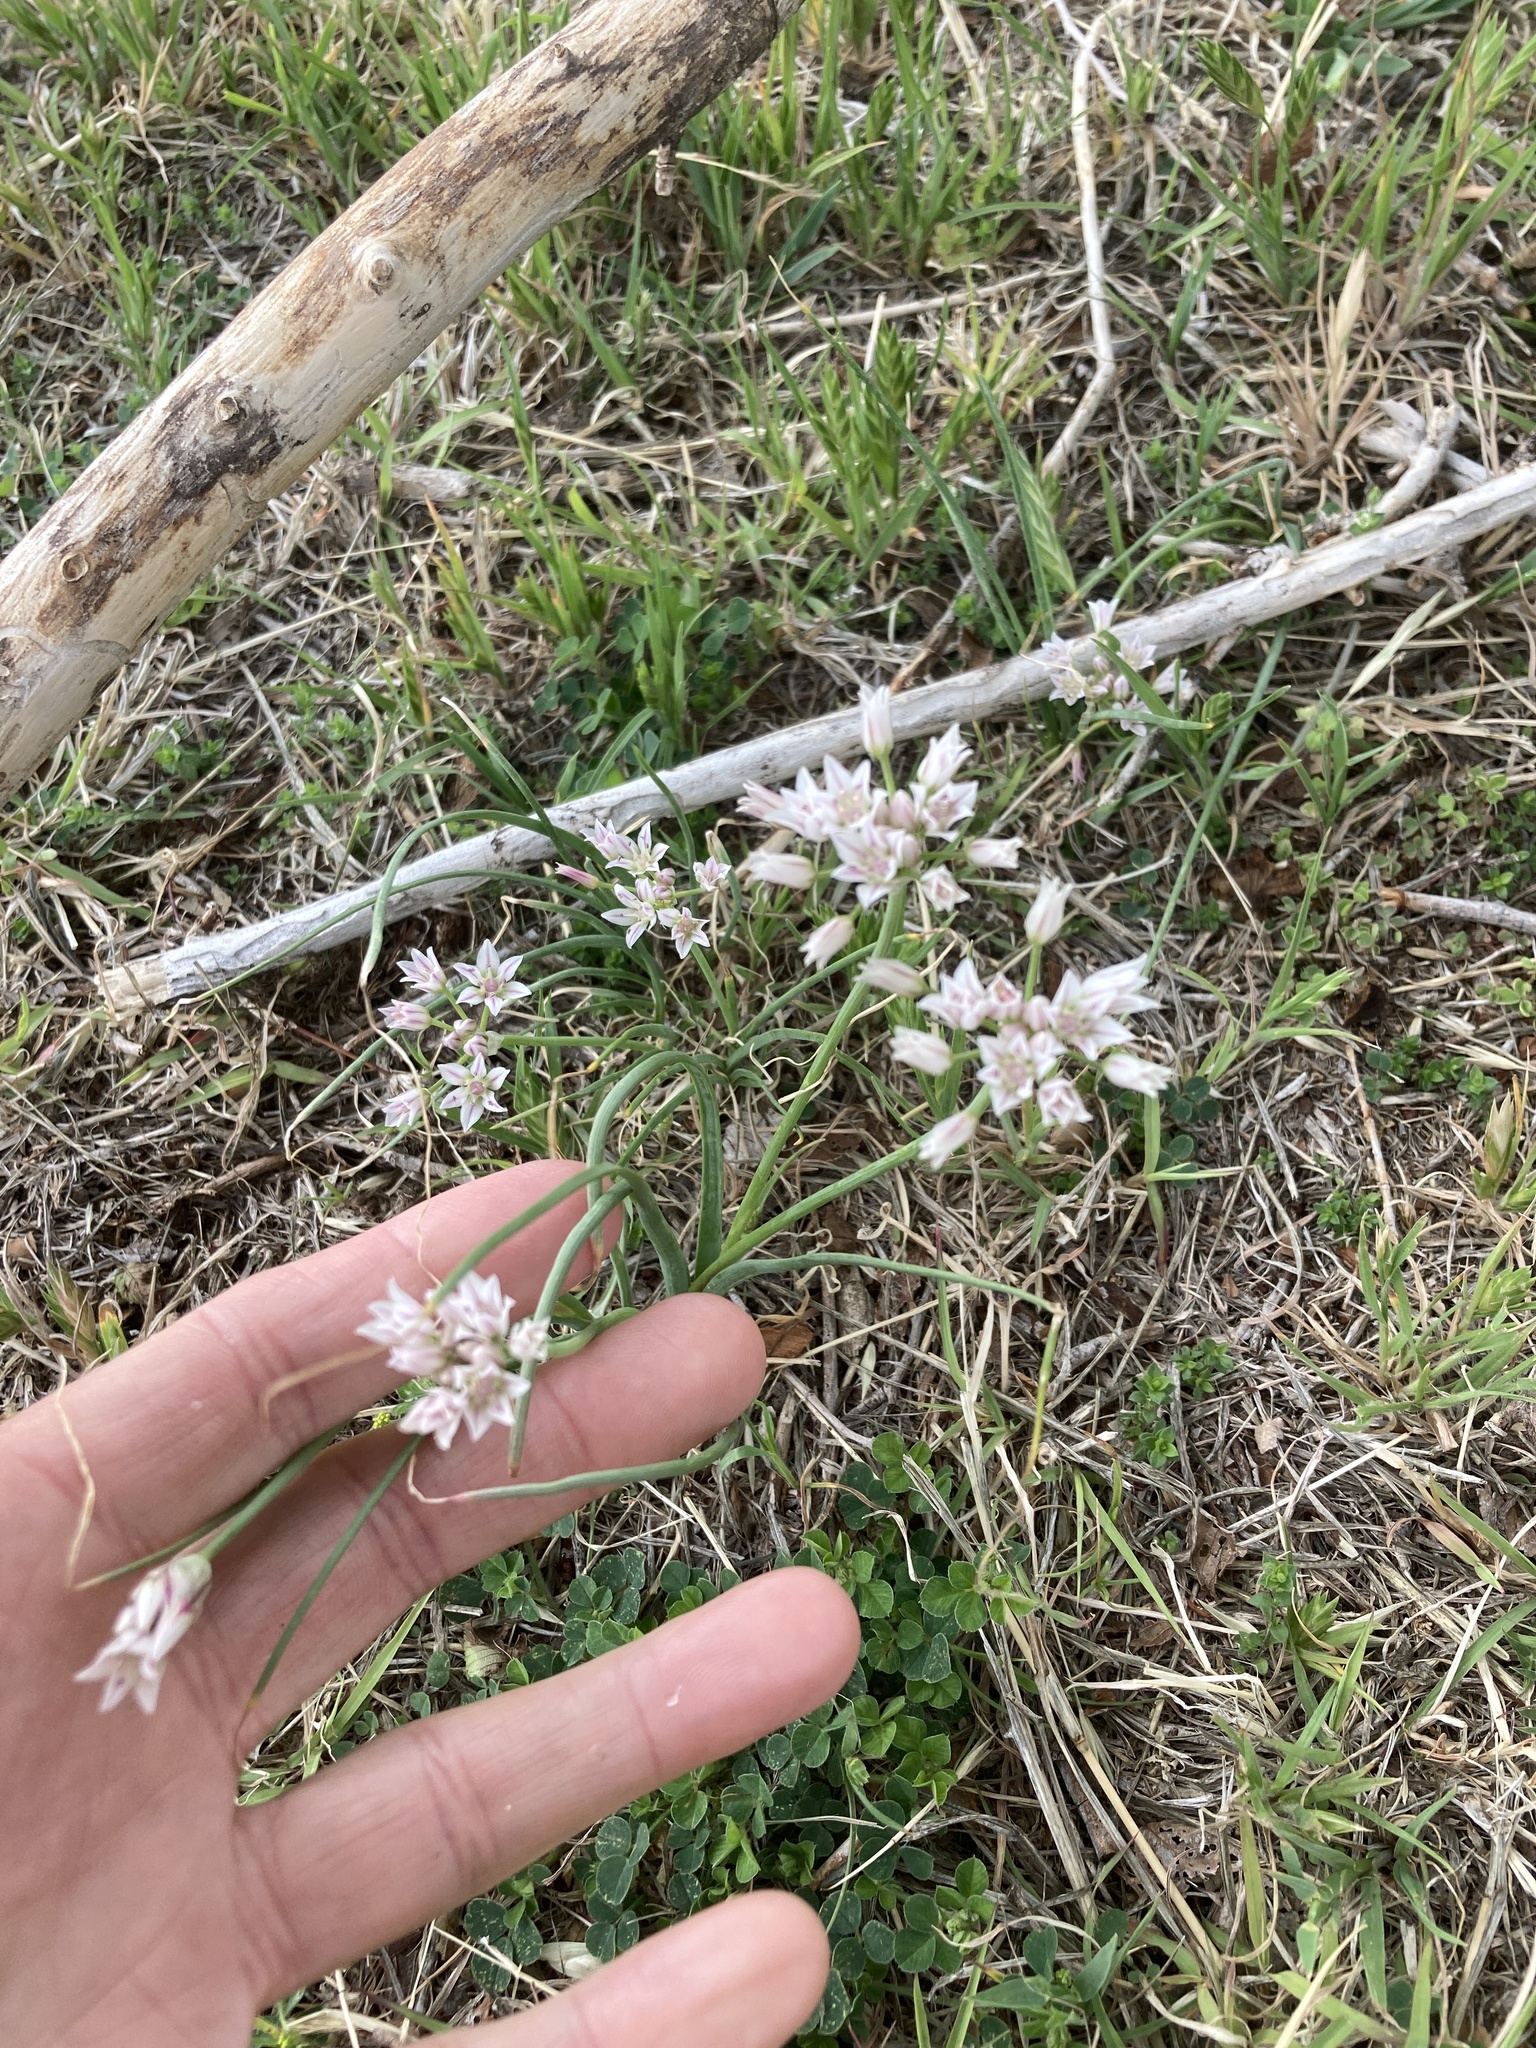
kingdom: Plantae
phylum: Tracheophyta
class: Liliopsida
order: Asparagales
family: Amaryllidaceae
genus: Allium
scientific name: Allium drummondii
